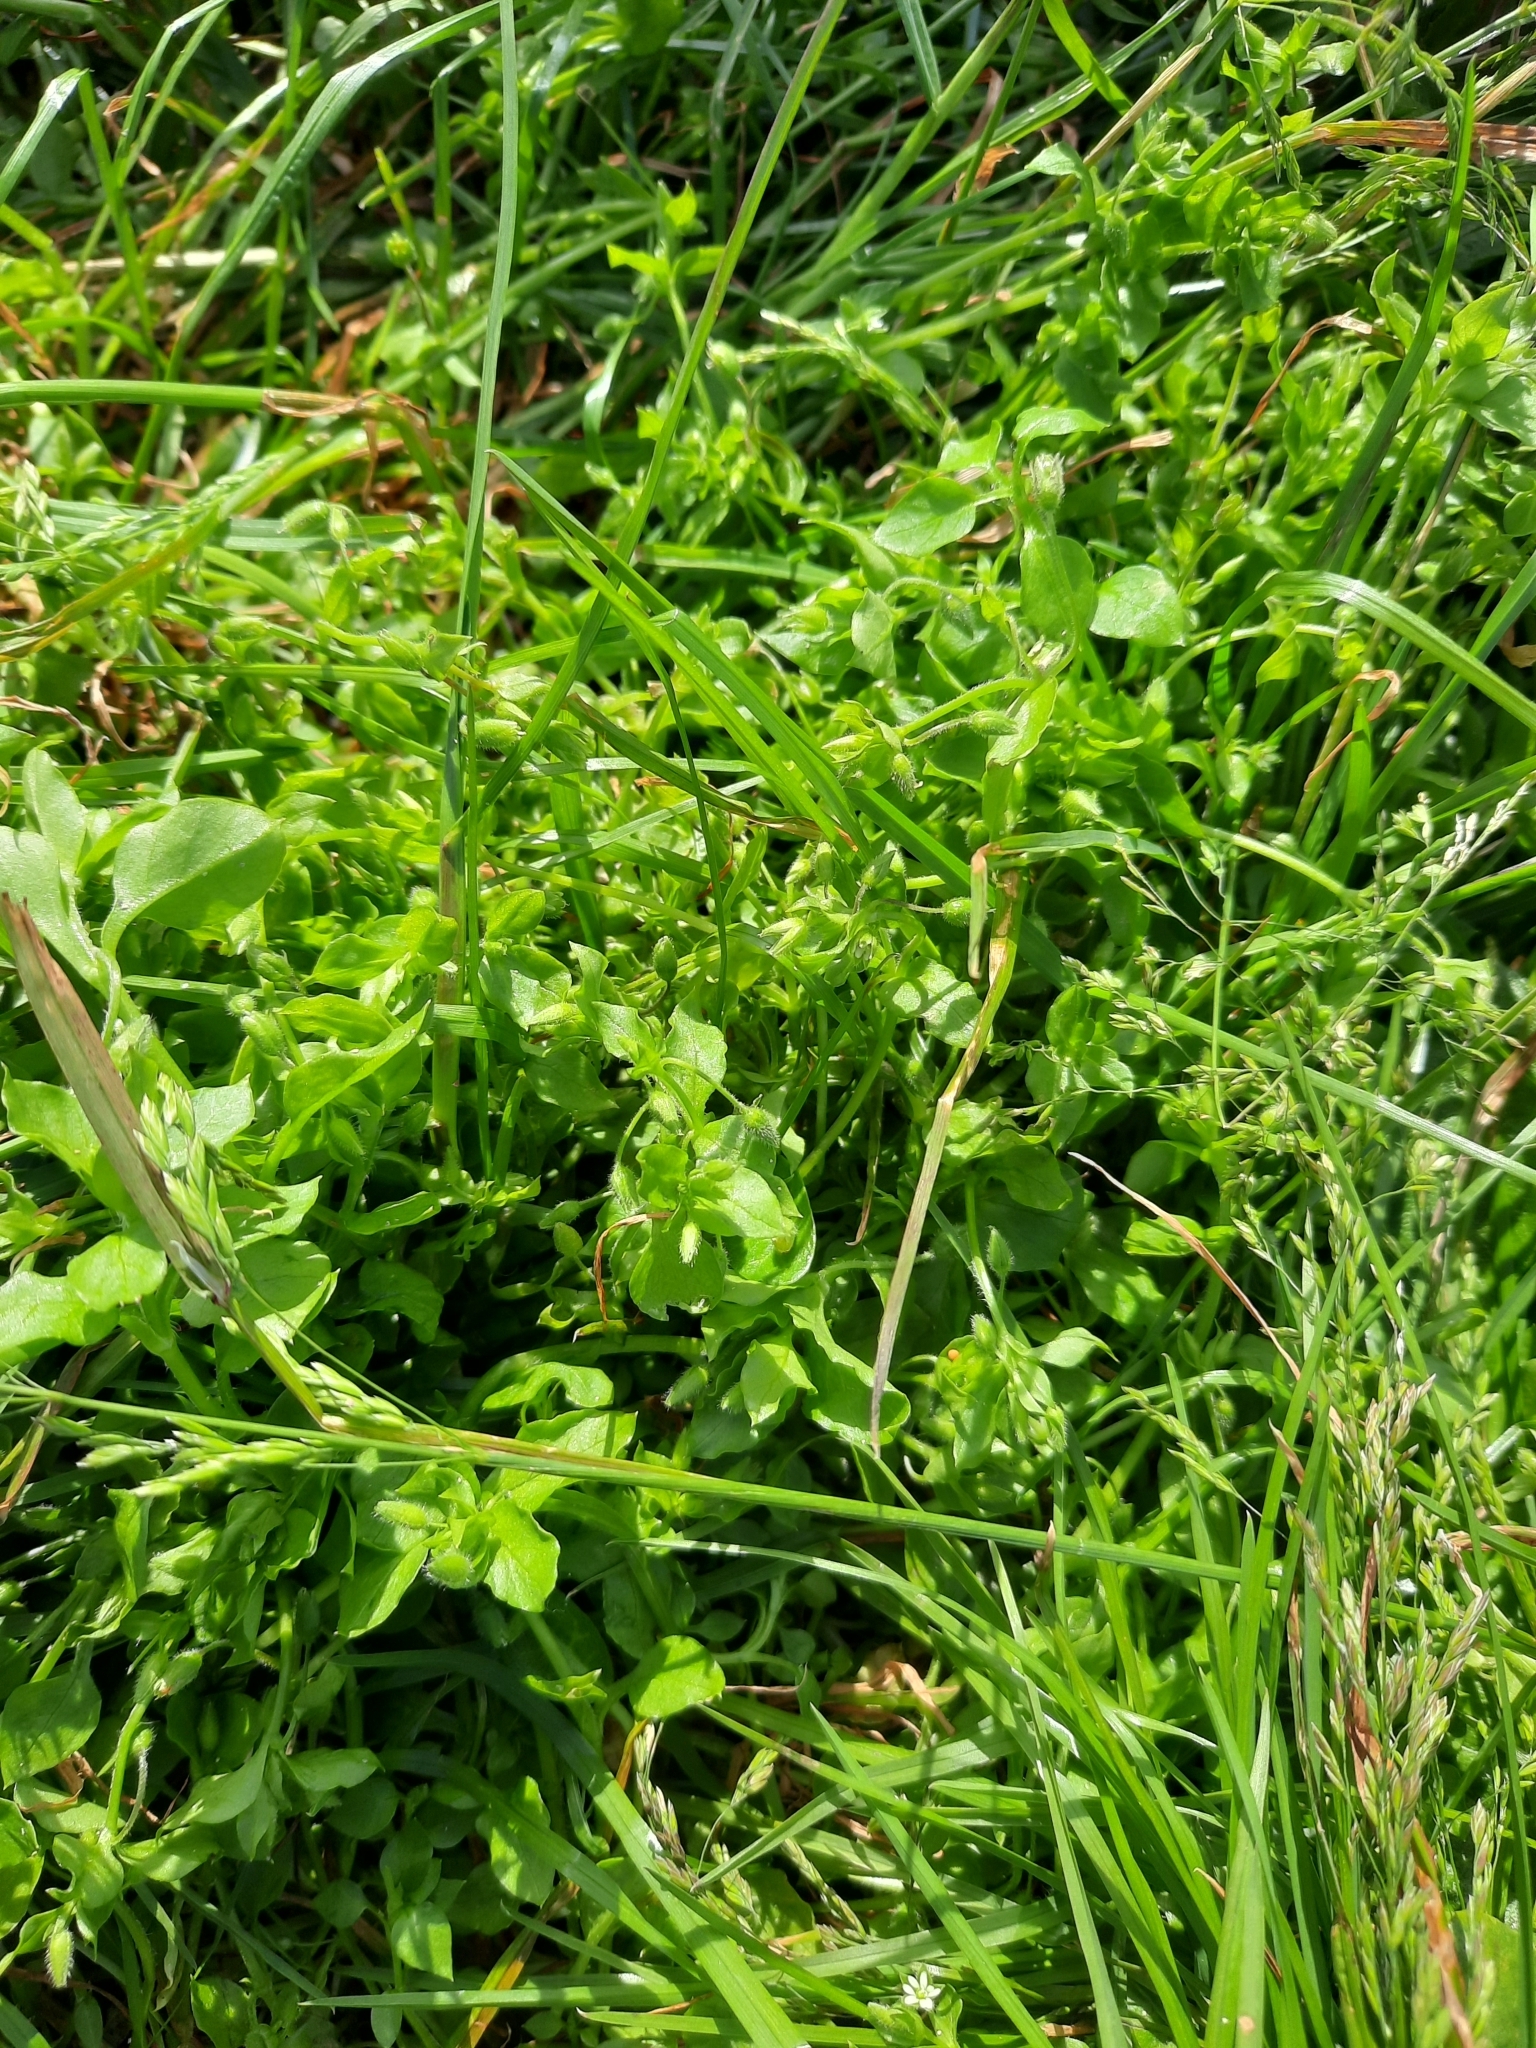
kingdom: Plantae
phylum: Tracheophyta
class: Magnoliopsida
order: Caryophyllales
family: Caryophyllaceae
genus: Stellaria
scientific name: Stellaria media
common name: Common chickweed
